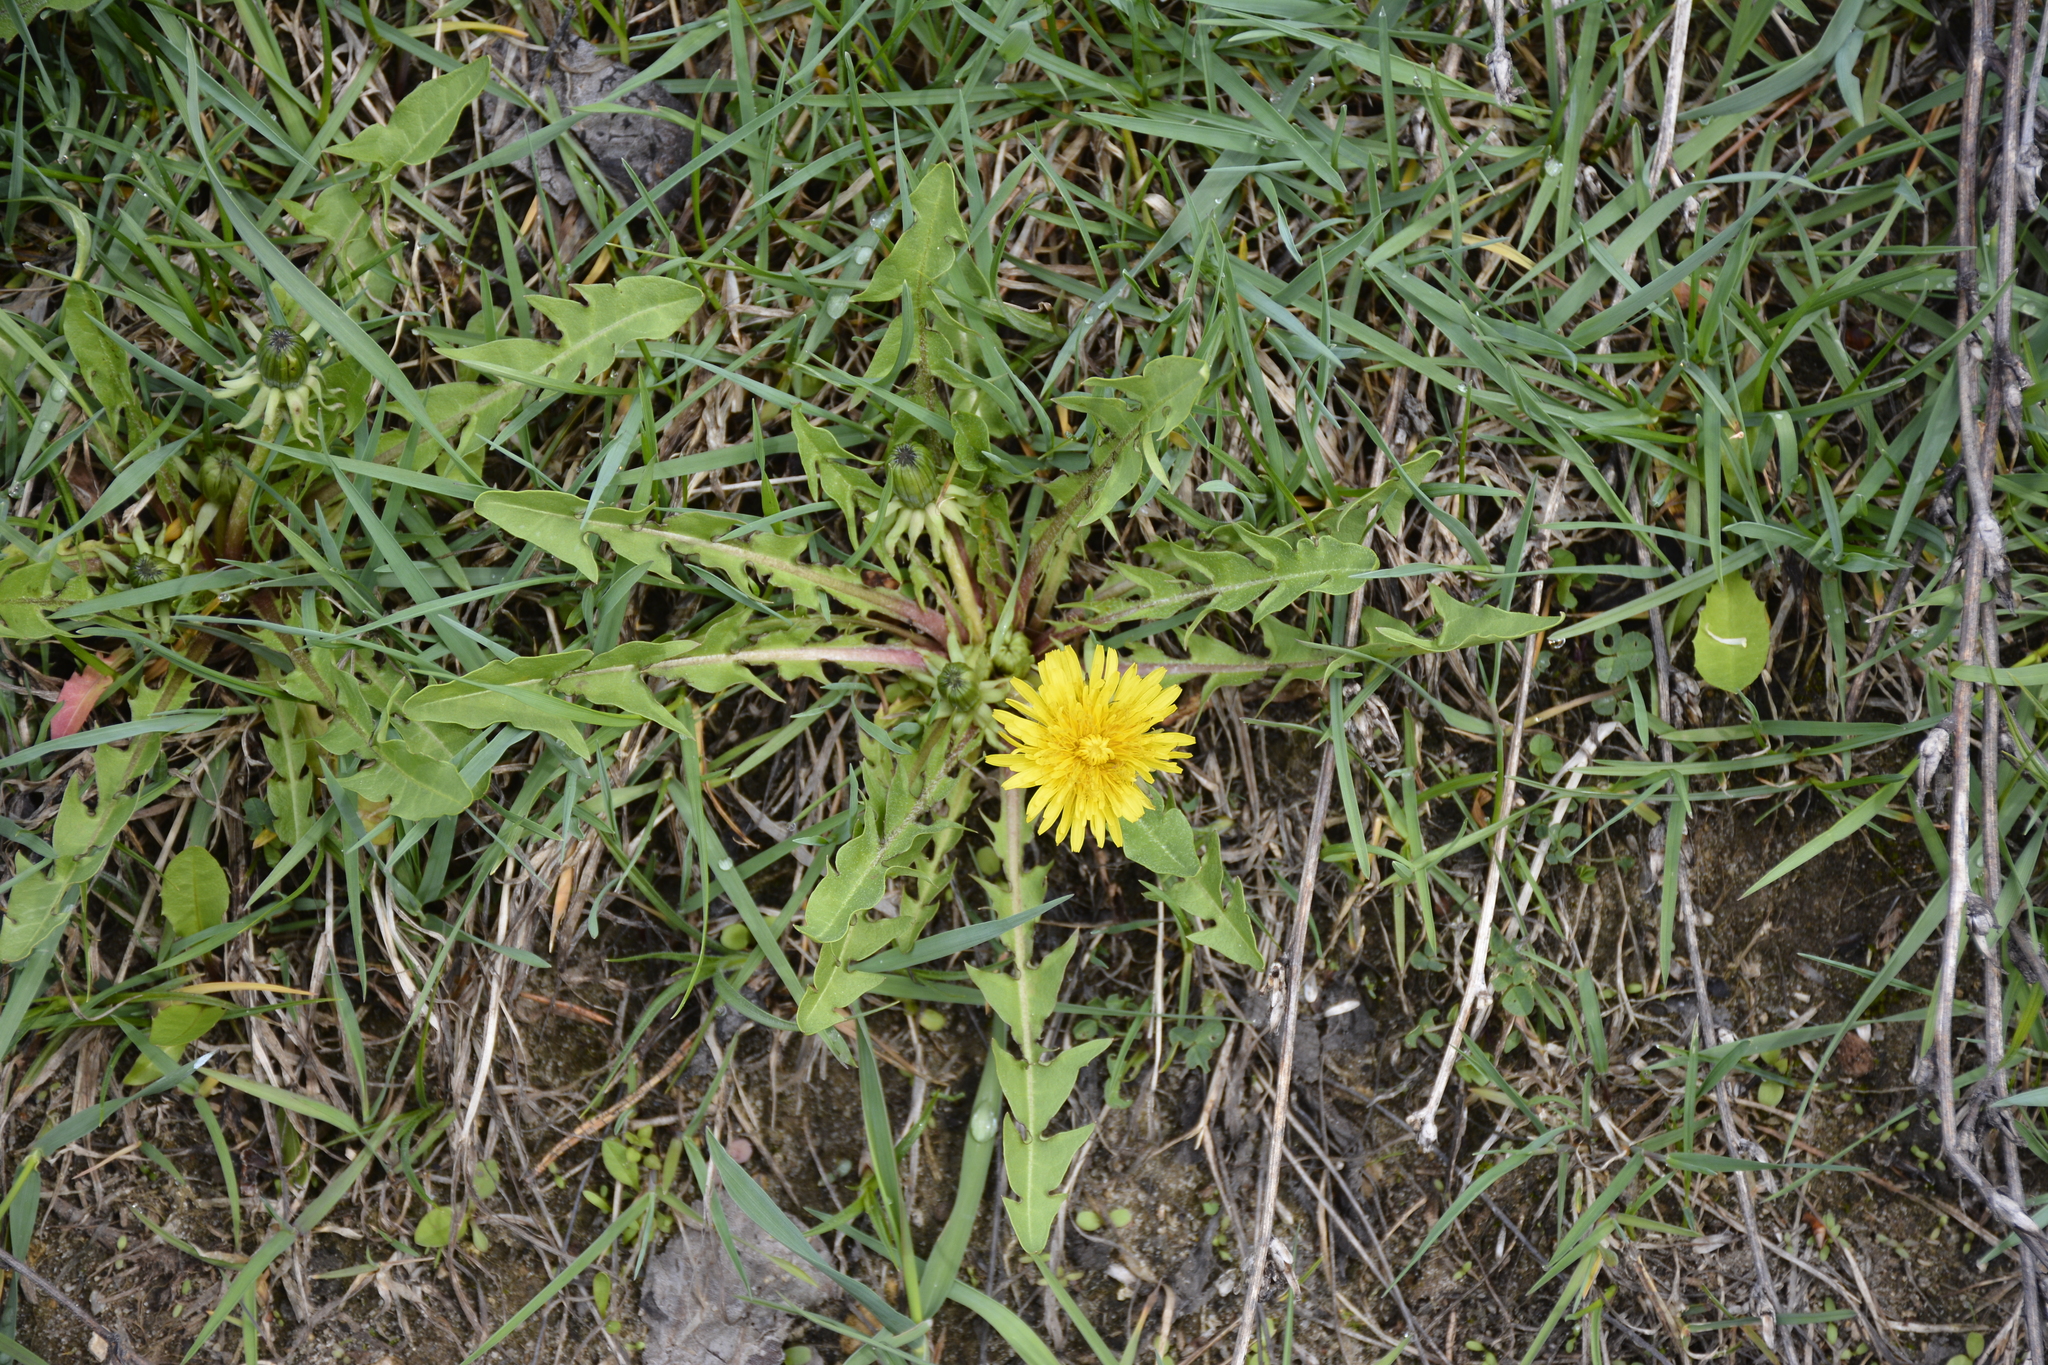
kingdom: Plantae
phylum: Tracheophyta
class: Magnoliopsida
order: Asterales
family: Asteraceae
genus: Taraxacum
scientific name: Taraxacum officinale
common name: Common dandelion
